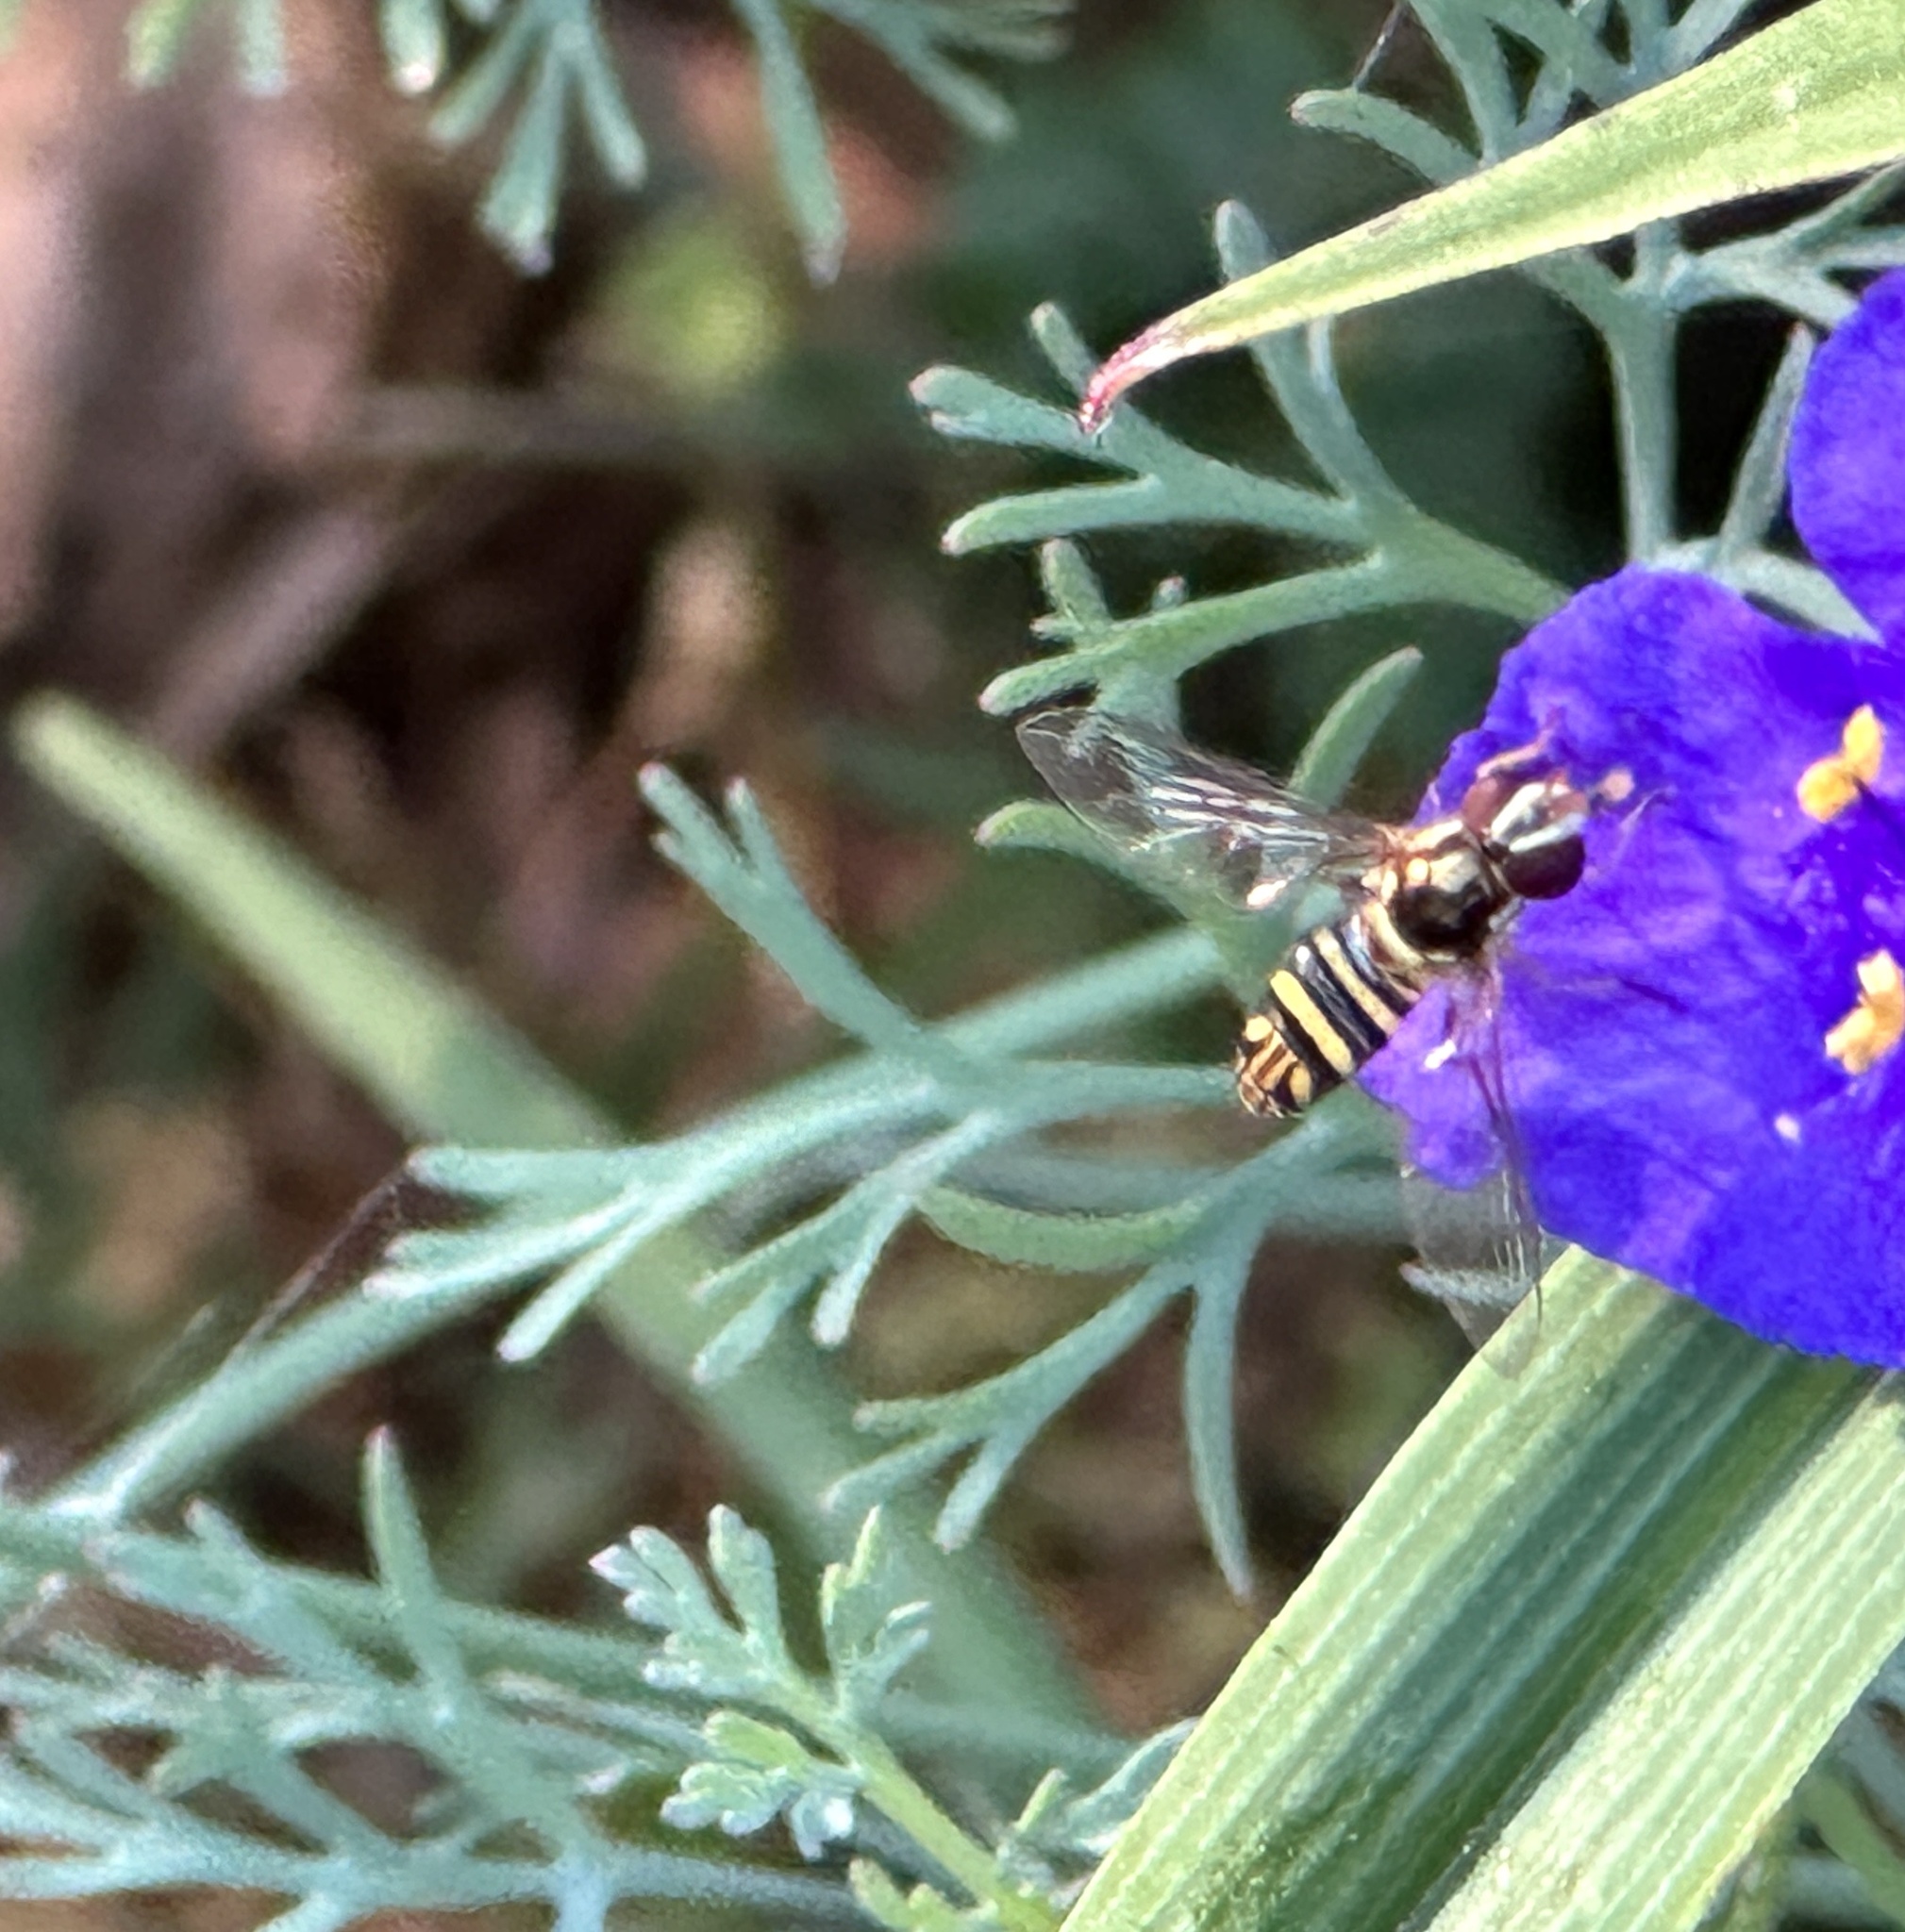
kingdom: Animalia
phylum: Arthropoda
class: Insecta
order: Diptera
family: Syrphidae
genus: Allograpta
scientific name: Allograpta obliqua
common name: Common oblique syrphid
